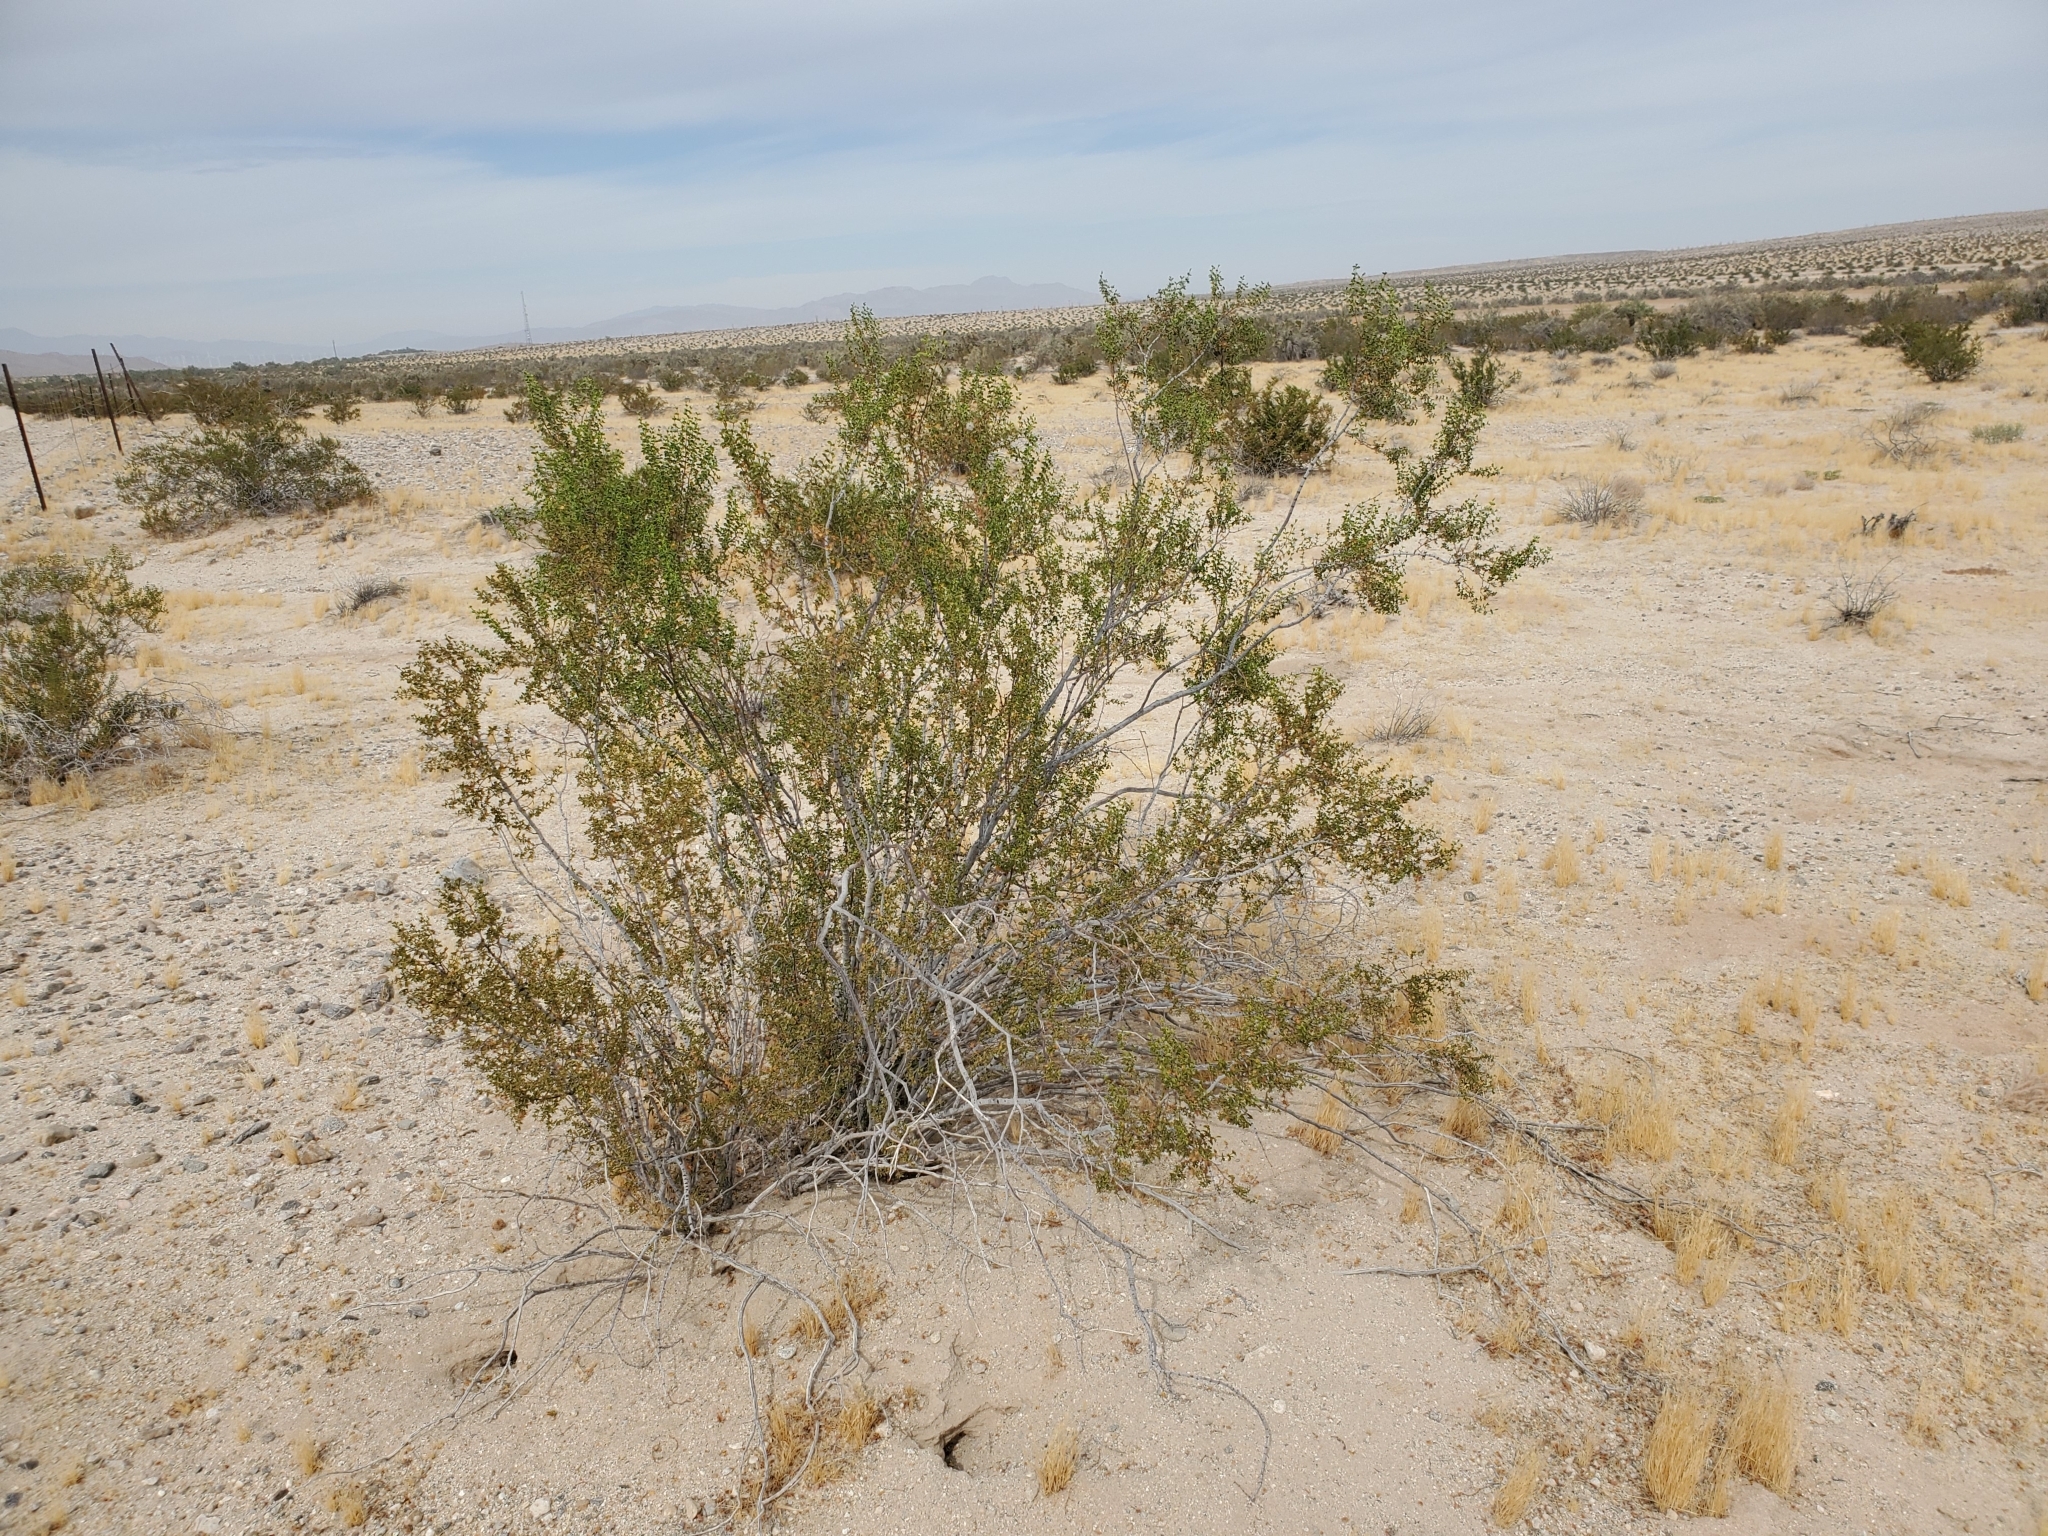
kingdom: Plantae
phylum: Tracheophyta
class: Magnoliopsida
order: Zygophyllales
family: Zygophyllaceae
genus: Larrea
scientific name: Larrea tridentata
